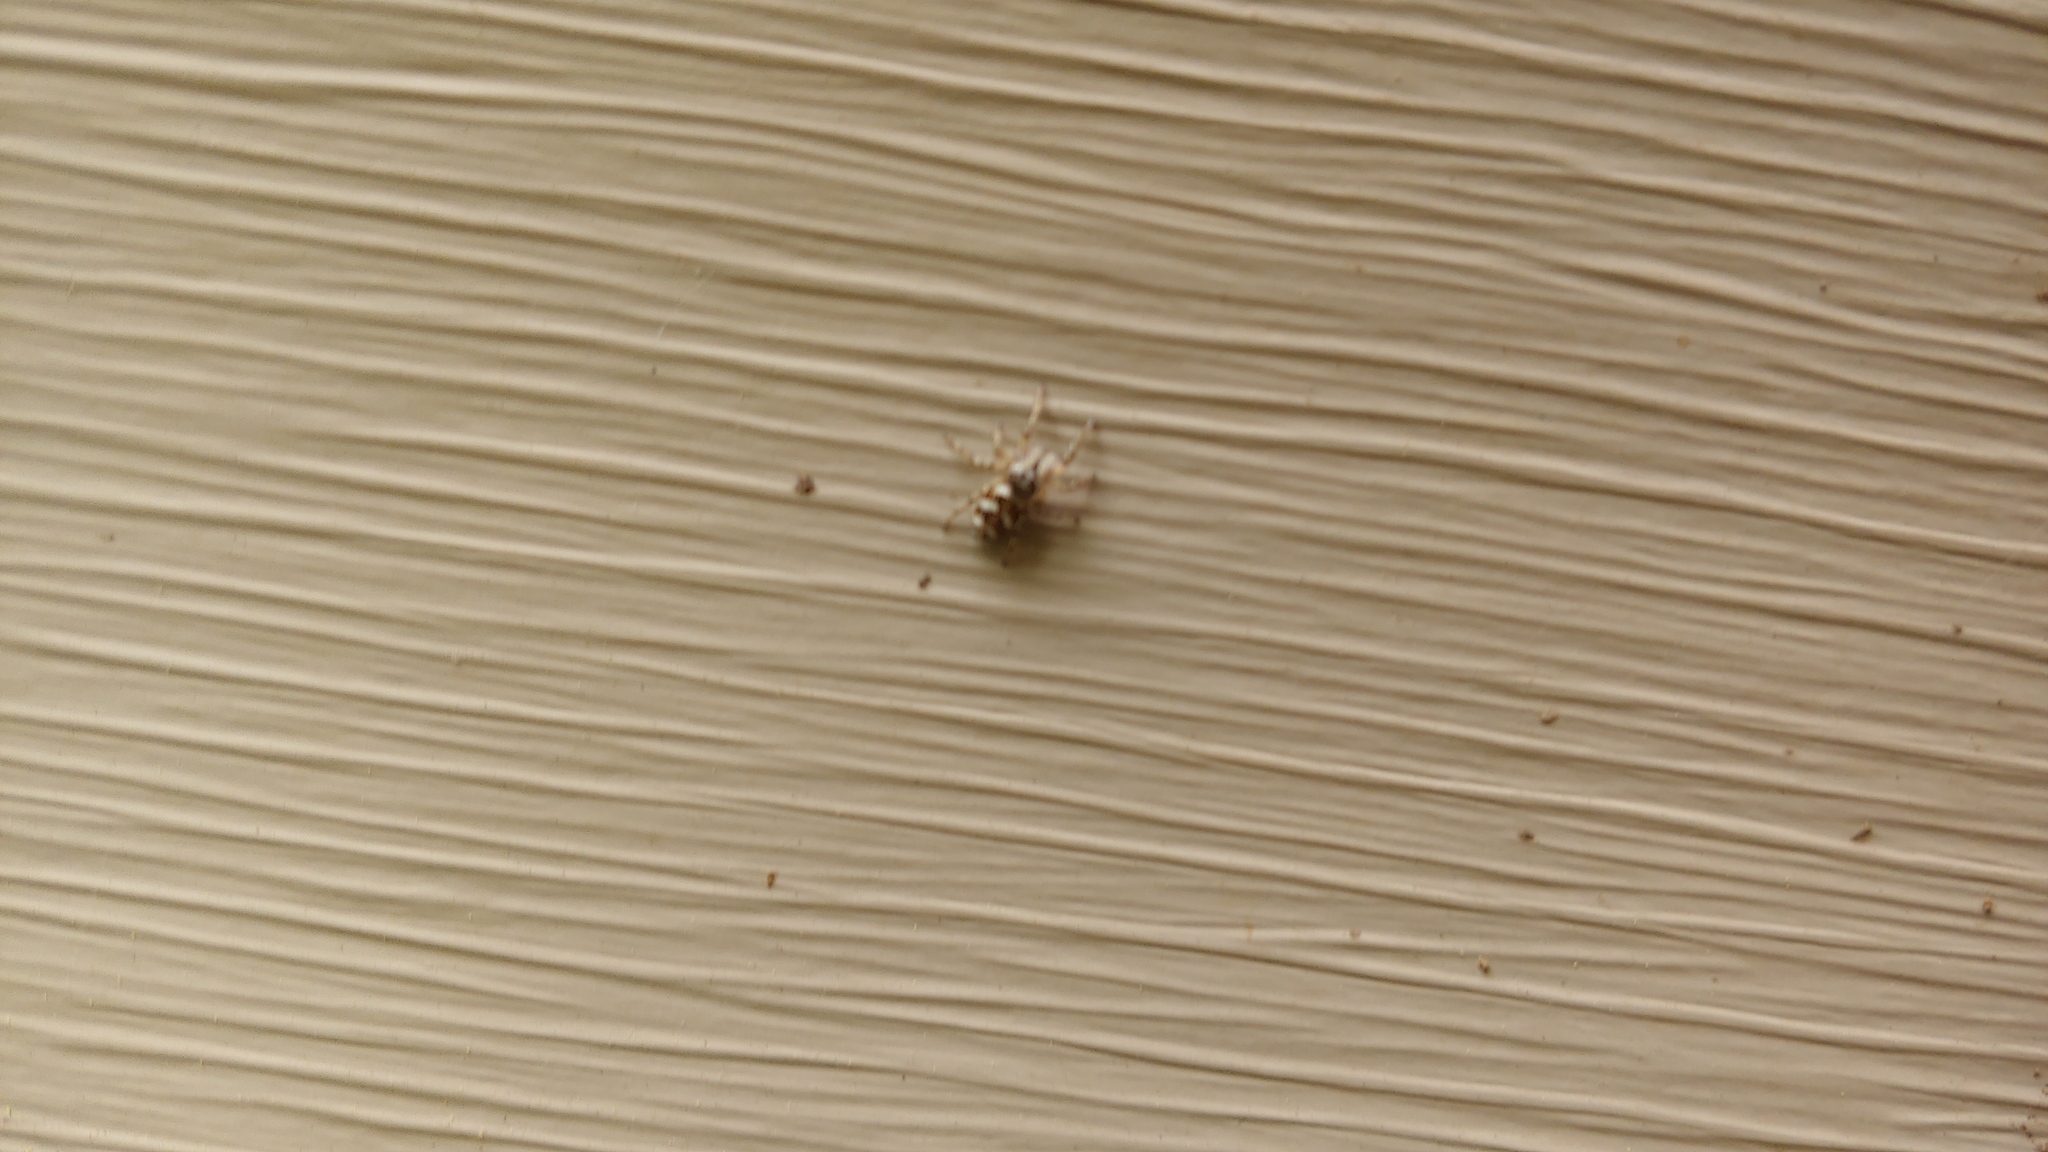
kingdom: Animalia
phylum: Arthropoda
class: Arachnida
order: Araneae
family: Salticidae
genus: Salticus
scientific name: Salticus scenicus
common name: Zebra jumper
